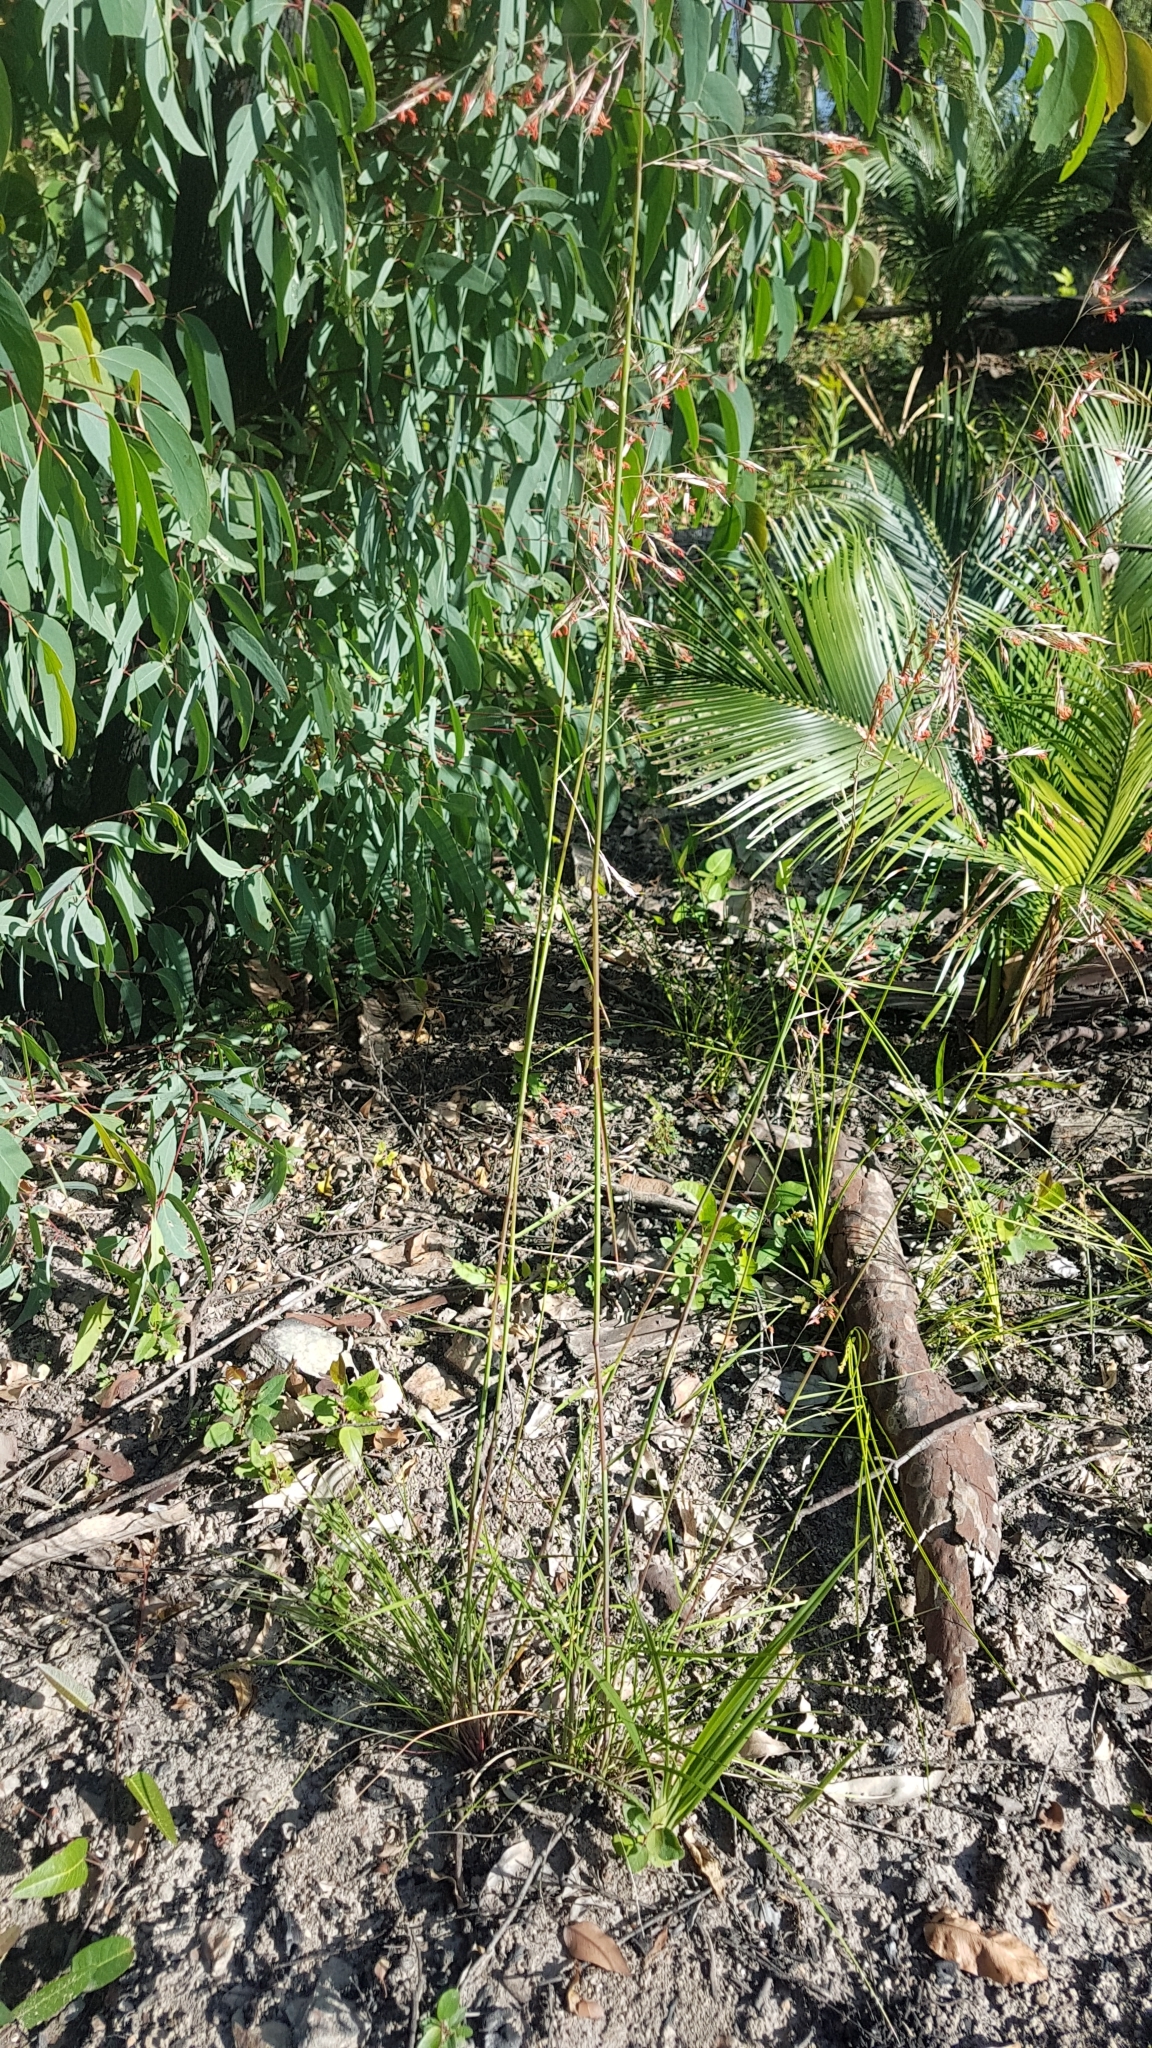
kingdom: Plantae
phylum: Tracheophyta
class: Liliopsida
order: Poales
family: Poaceae
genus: Rytidosperma
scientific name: Rytidosperma pallidum
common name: Red-anther wallaby grass
